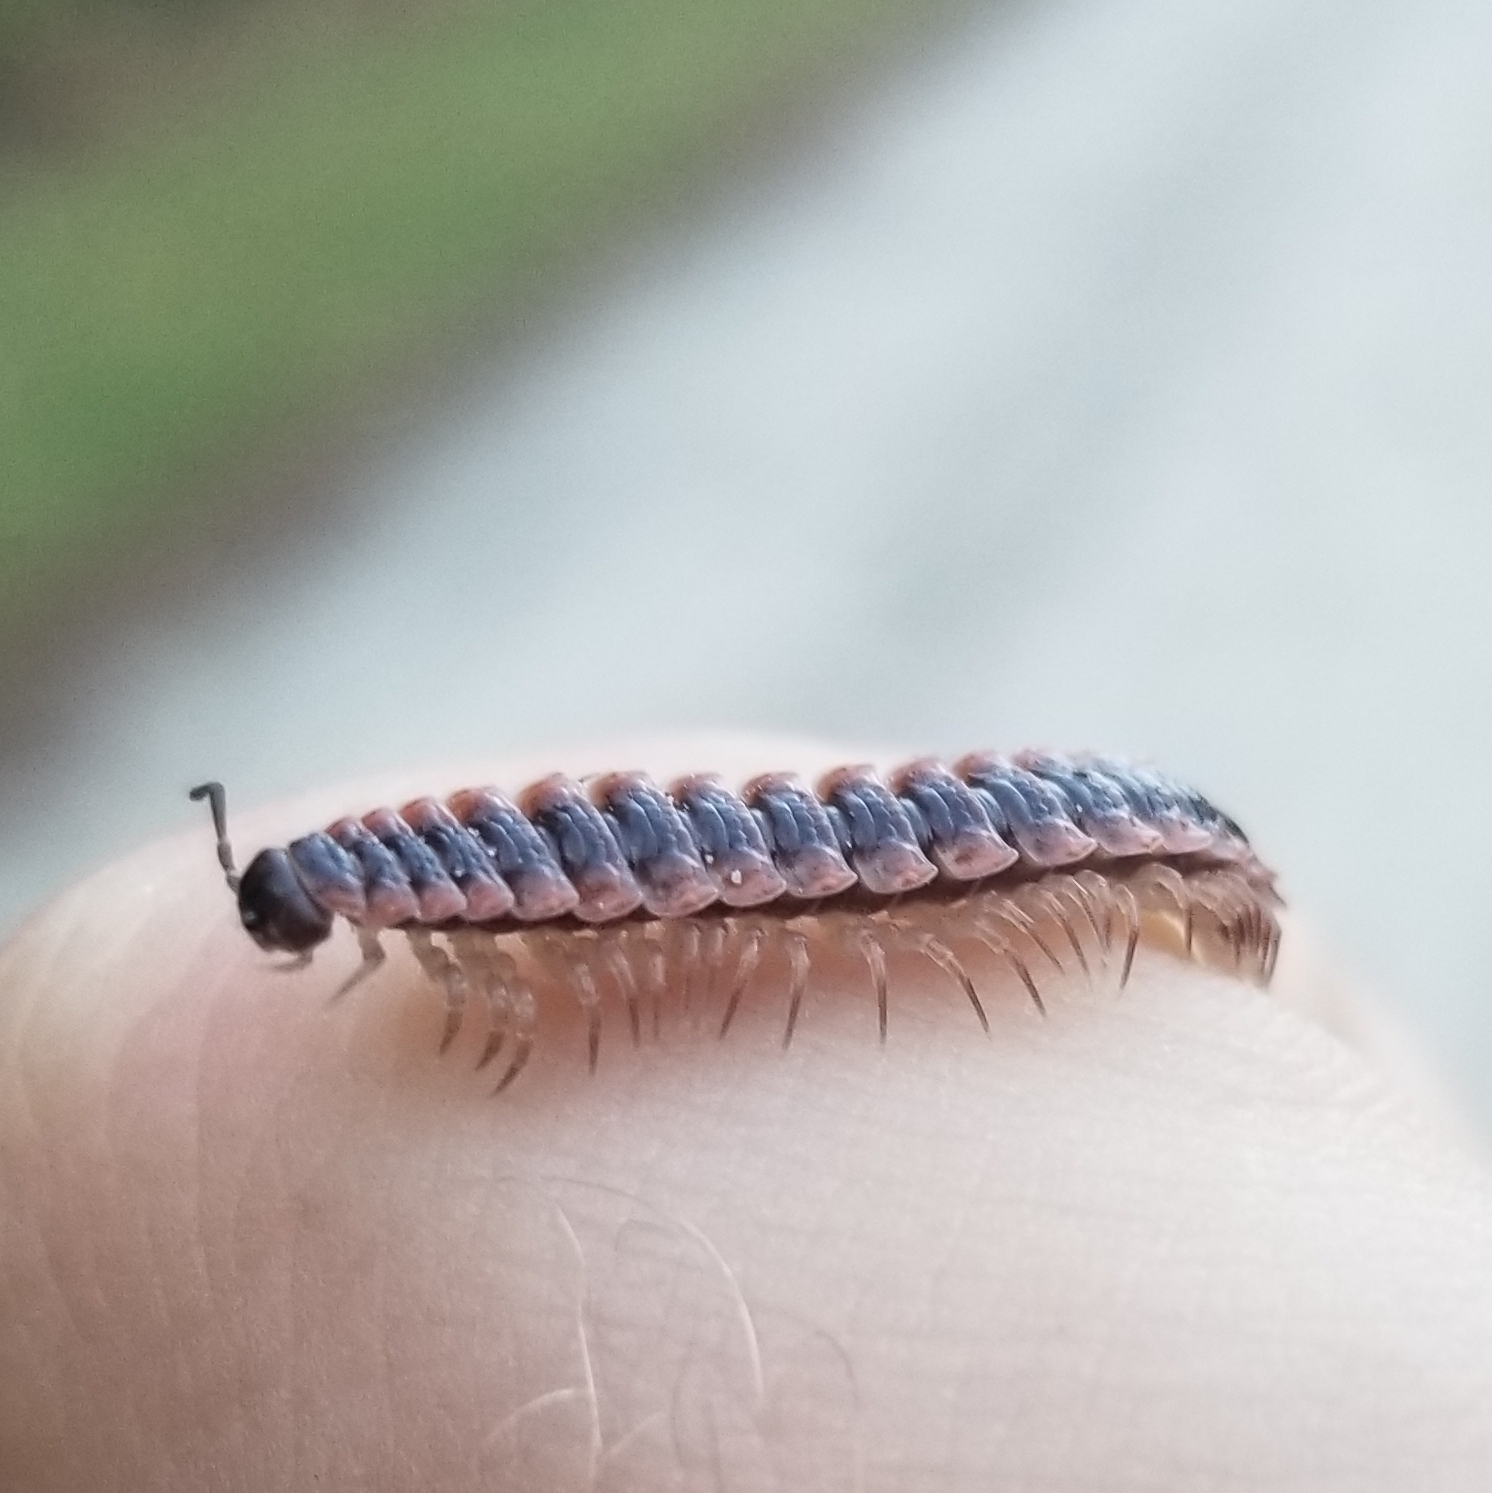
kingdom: Animalia
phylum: Arthropoda
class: Diplopoda
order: Polydesmida
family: Polydesmidae
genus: Pseudopolydesmus
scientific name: Pseudopolydesmus canadensis
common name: Canadian flat-back millipede
